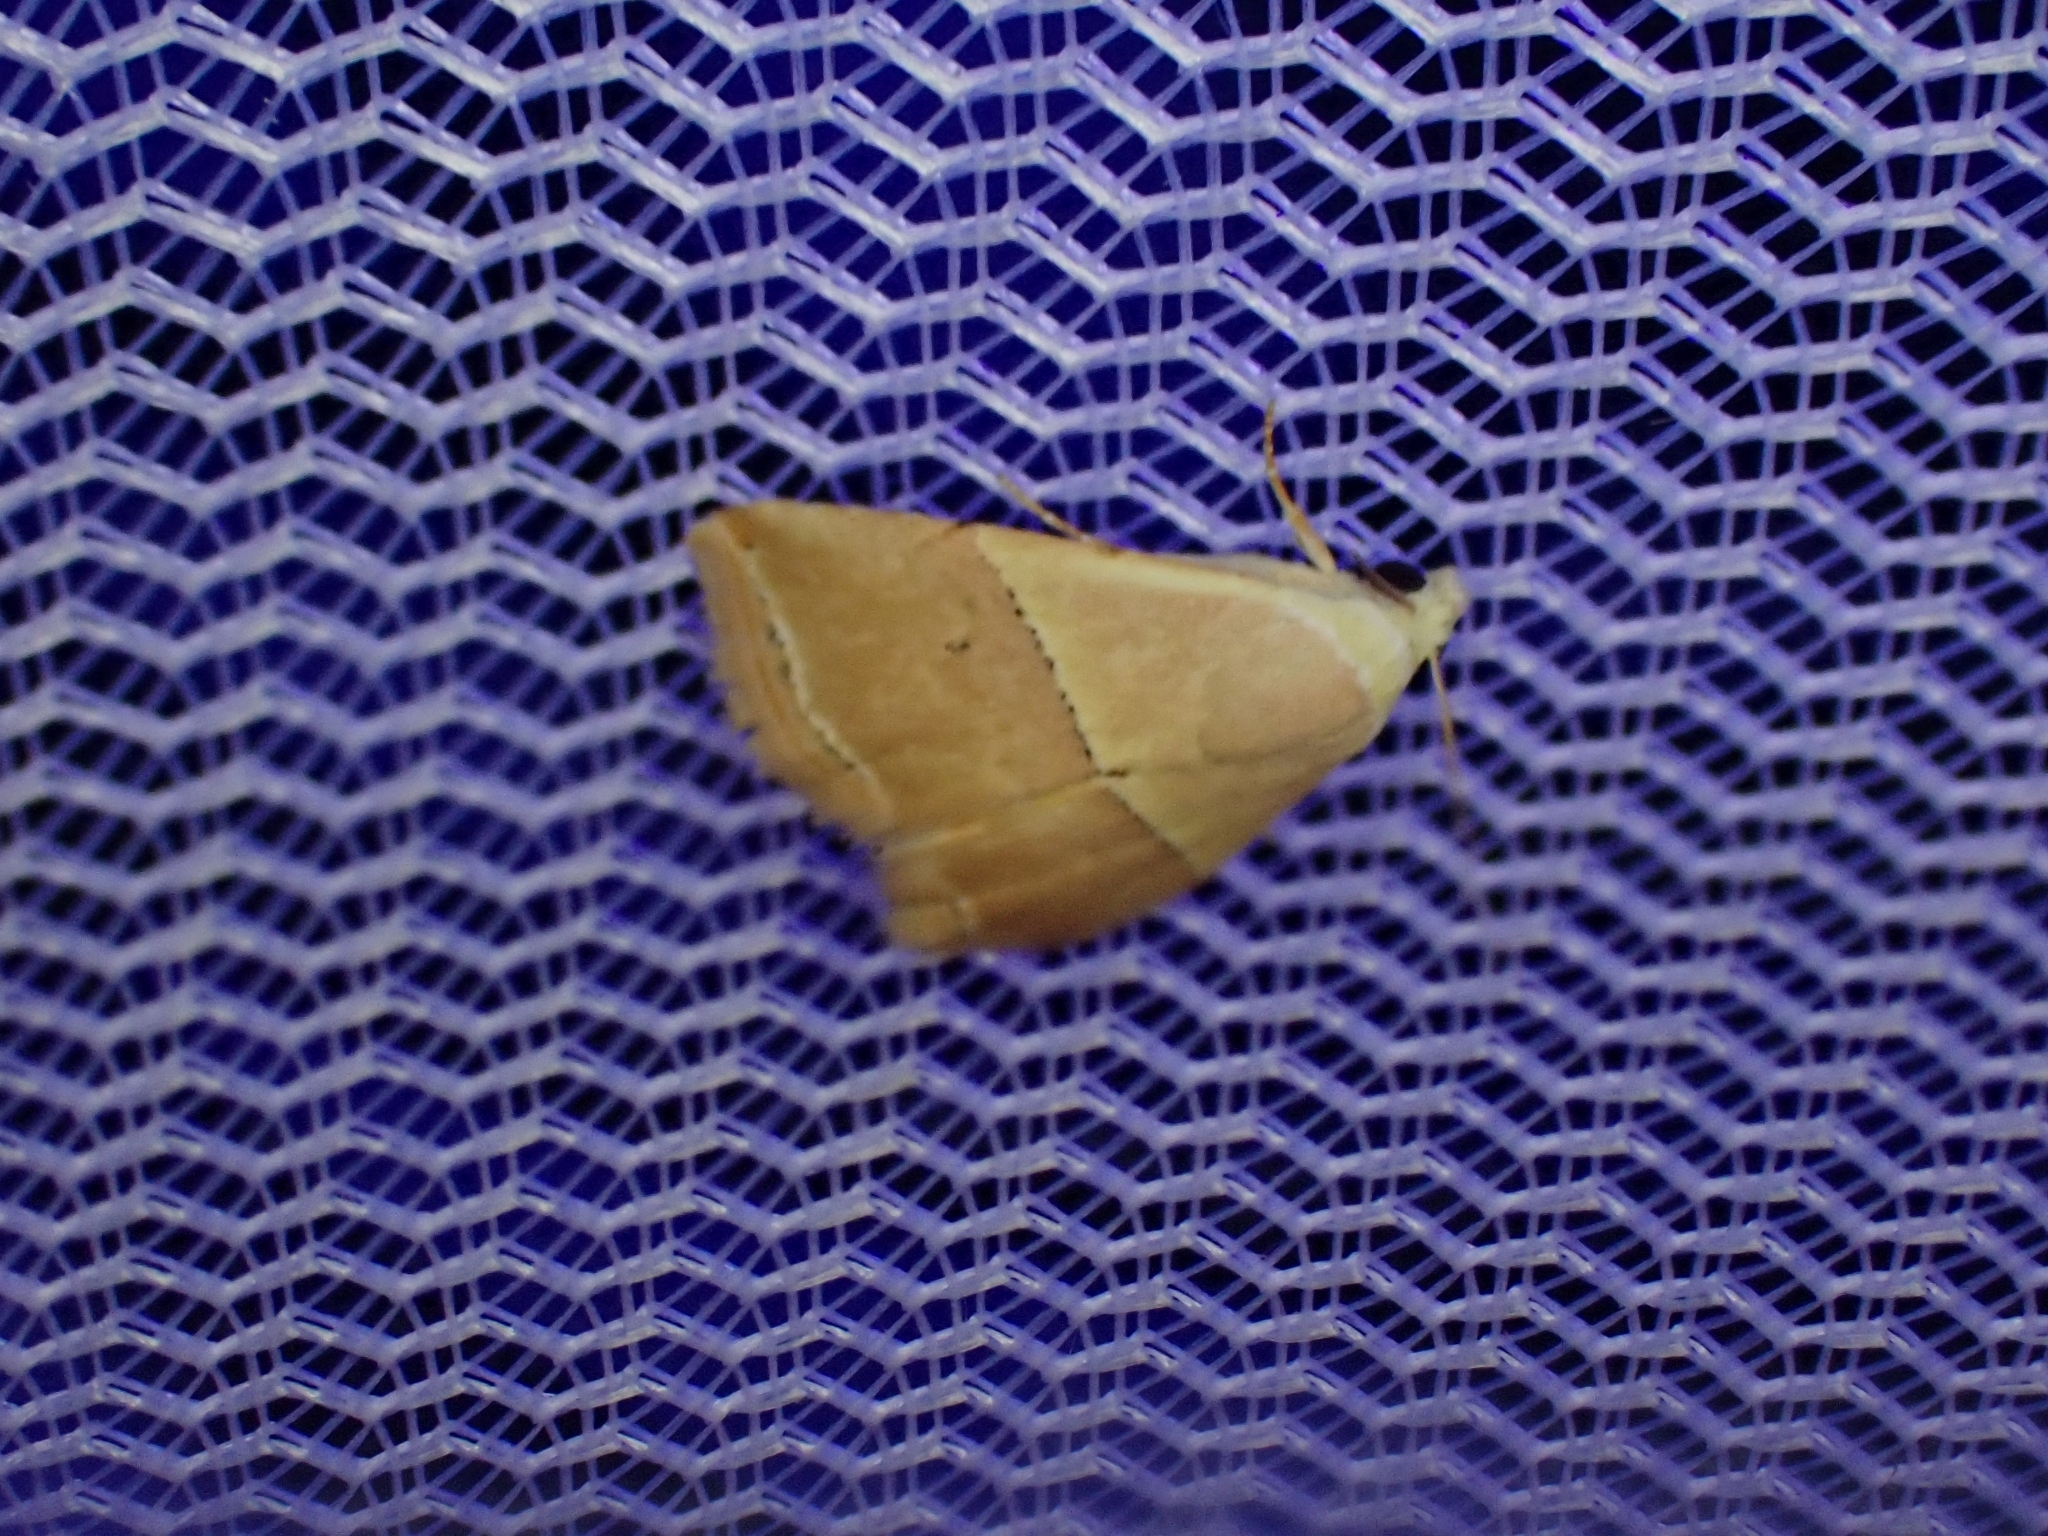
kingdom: Animalia
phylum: Arthropoda
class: Insecta
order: Lepidoptera
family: Noctuidae
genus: Eublemma
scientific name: Eublemma caffrorum
